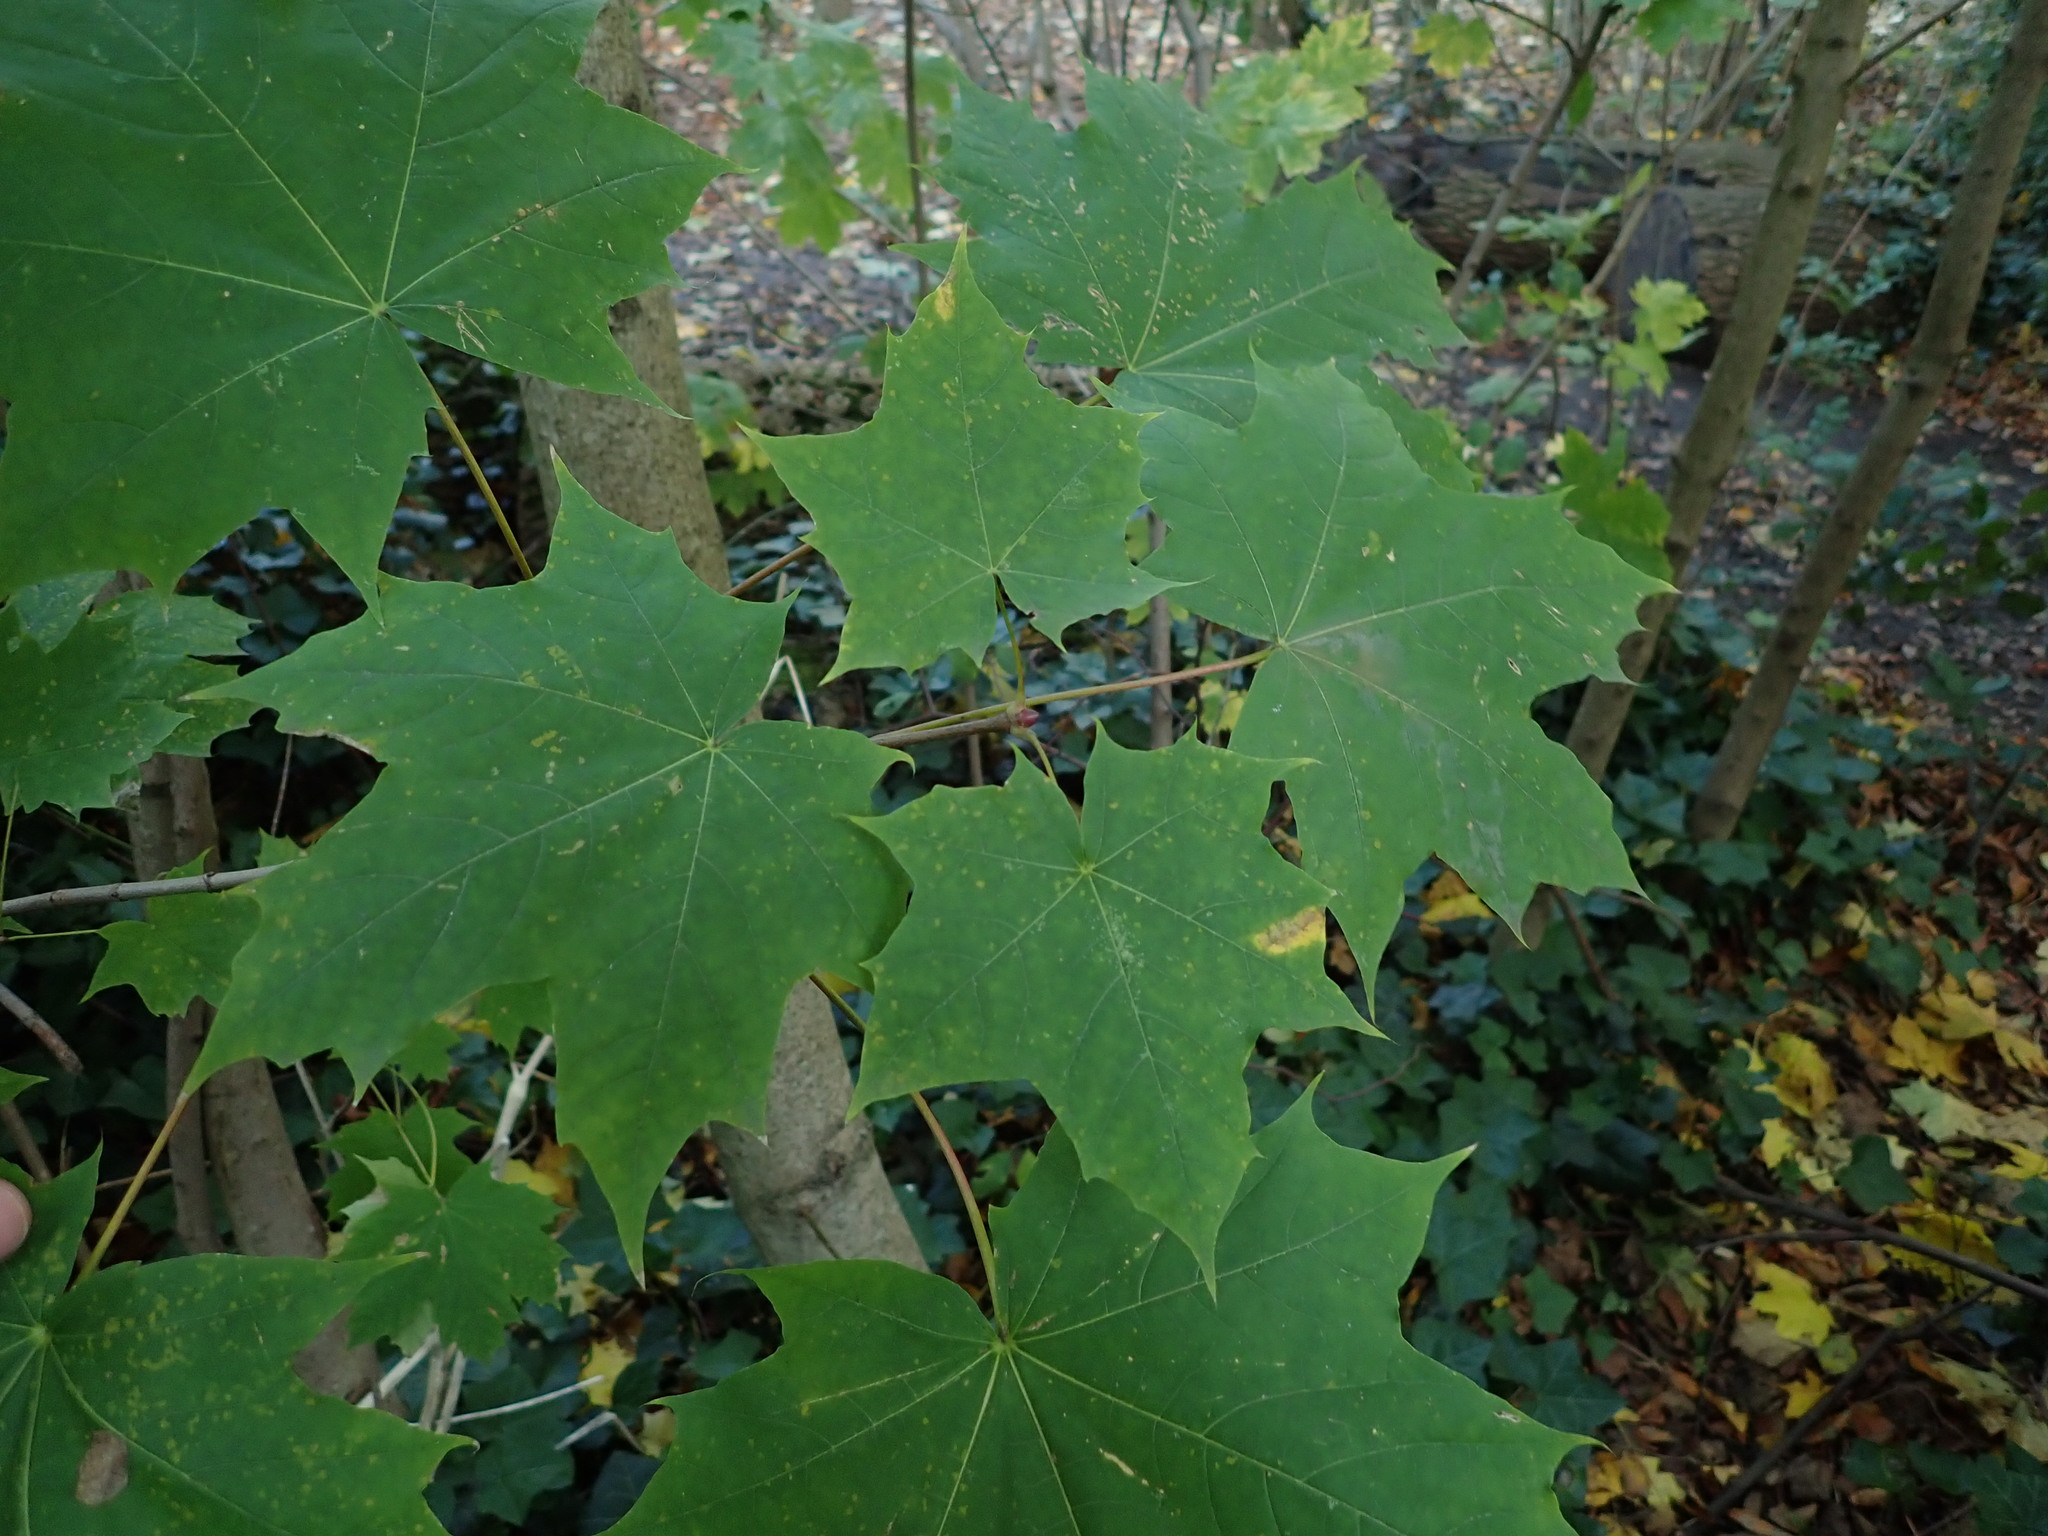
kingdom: Plantae
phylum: Tracheophyta
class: Magnoliopsida
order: Sapindales
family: Sapindaceae
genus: Acer
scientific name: Acer platanoides
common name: Norway maple
